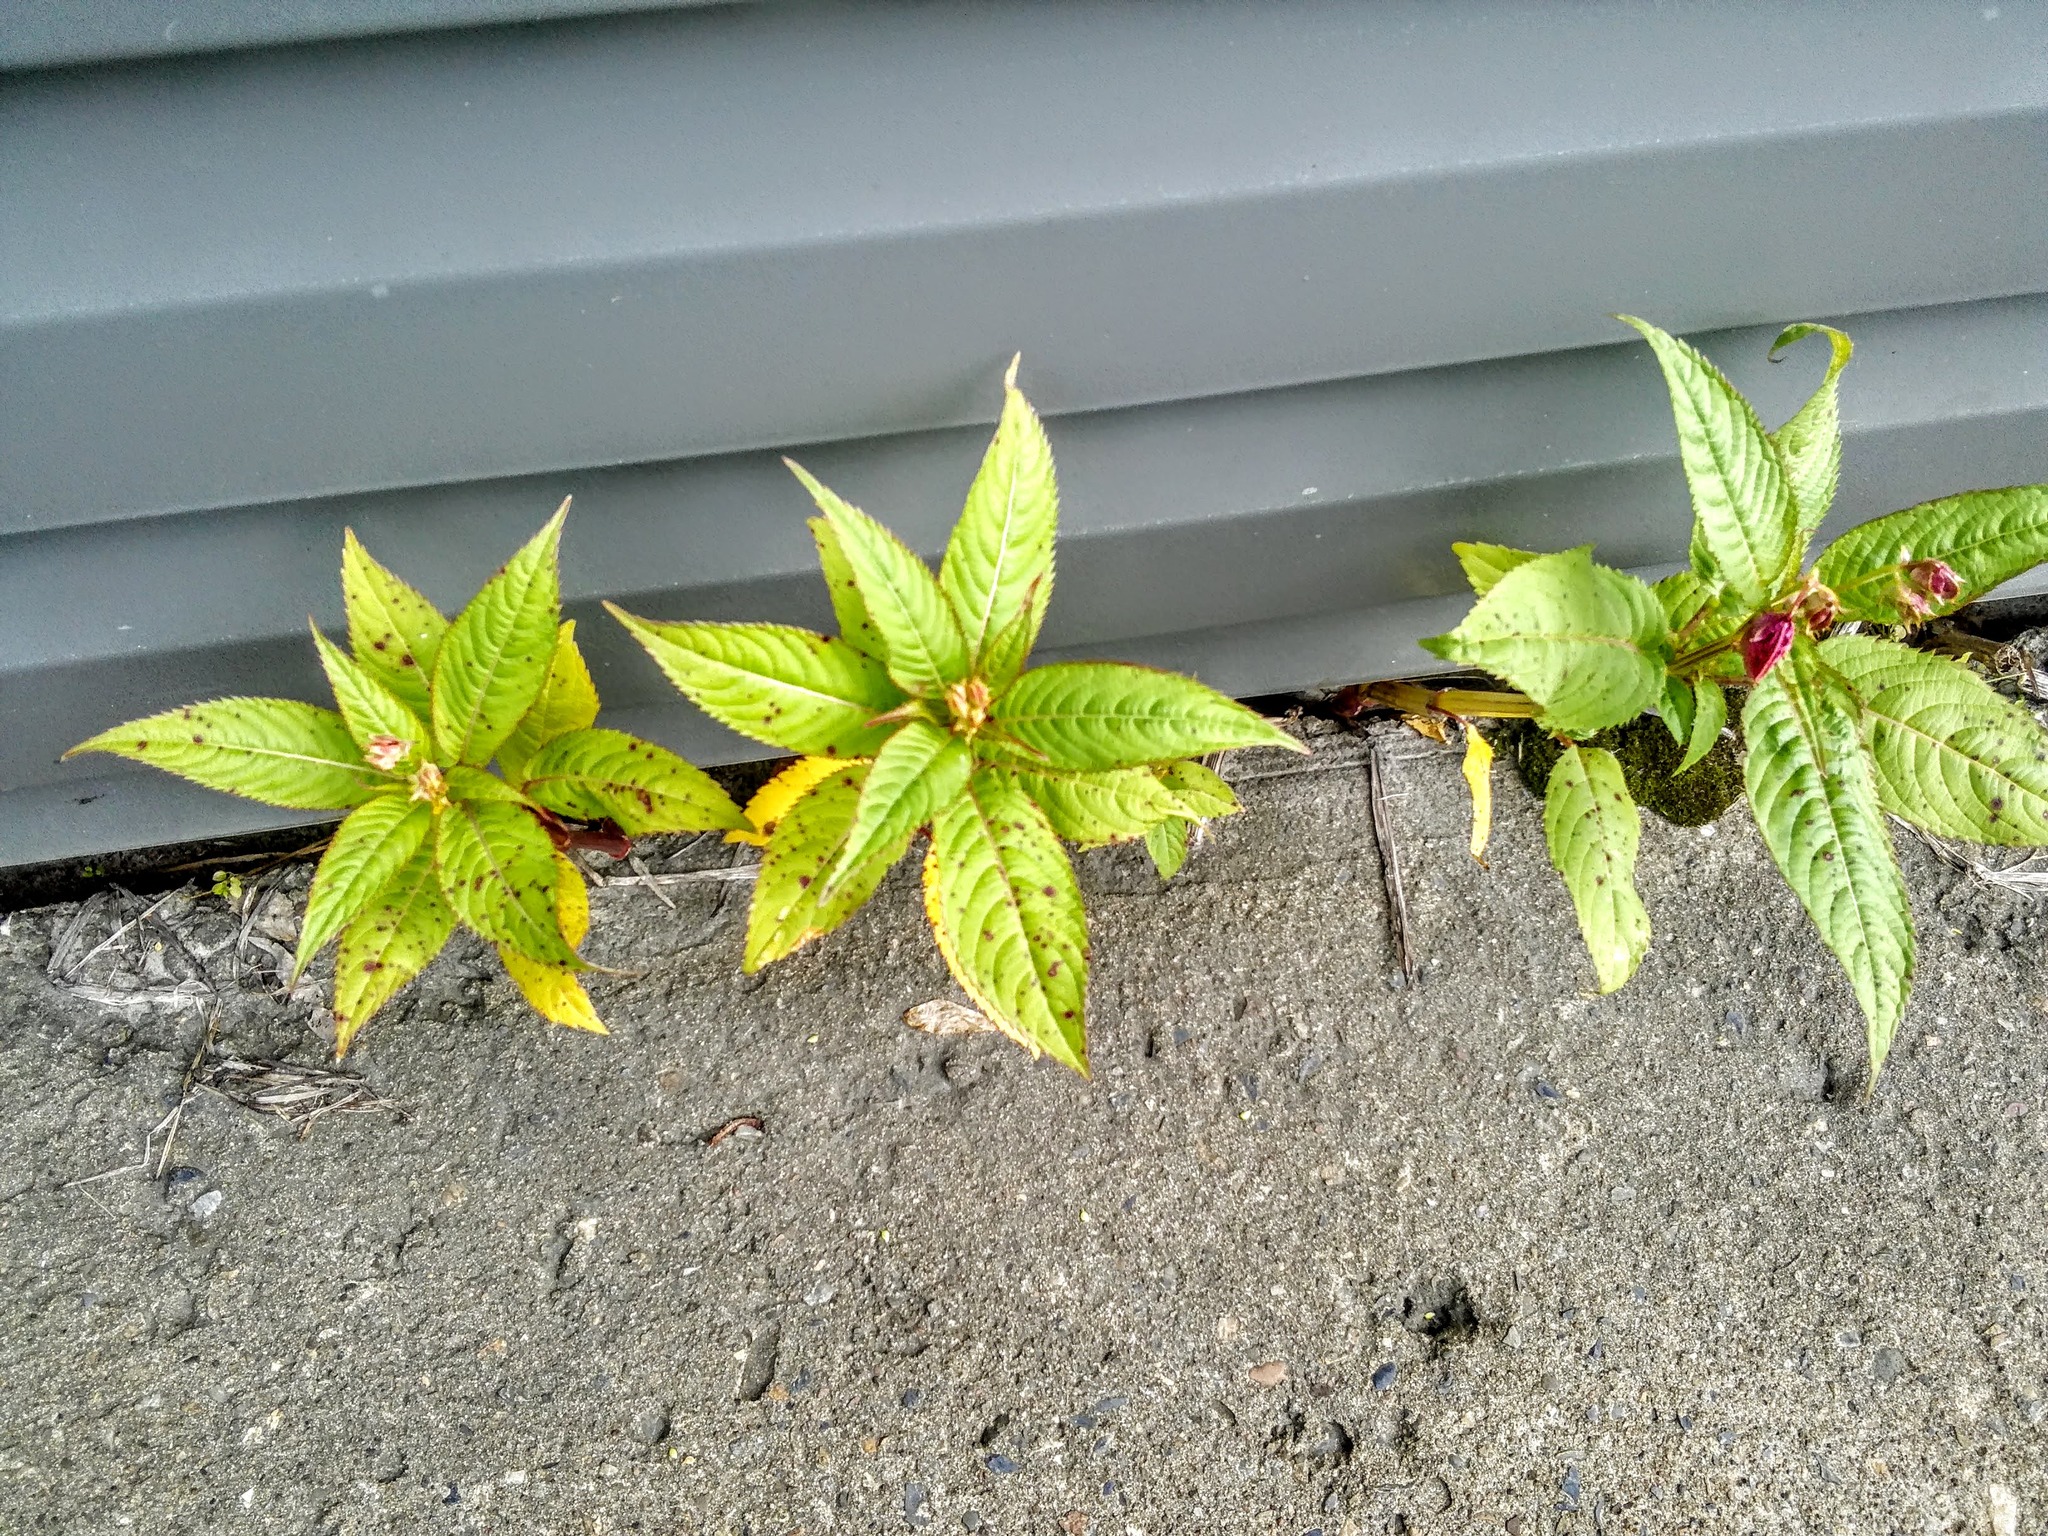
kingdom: Plantae
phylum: Tracheophyta
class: Magnoliopsida
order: Ericales
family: Balsaminaceae
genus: Impatiens
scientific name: Impatiens glandulifera
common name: Himalayan balsam
